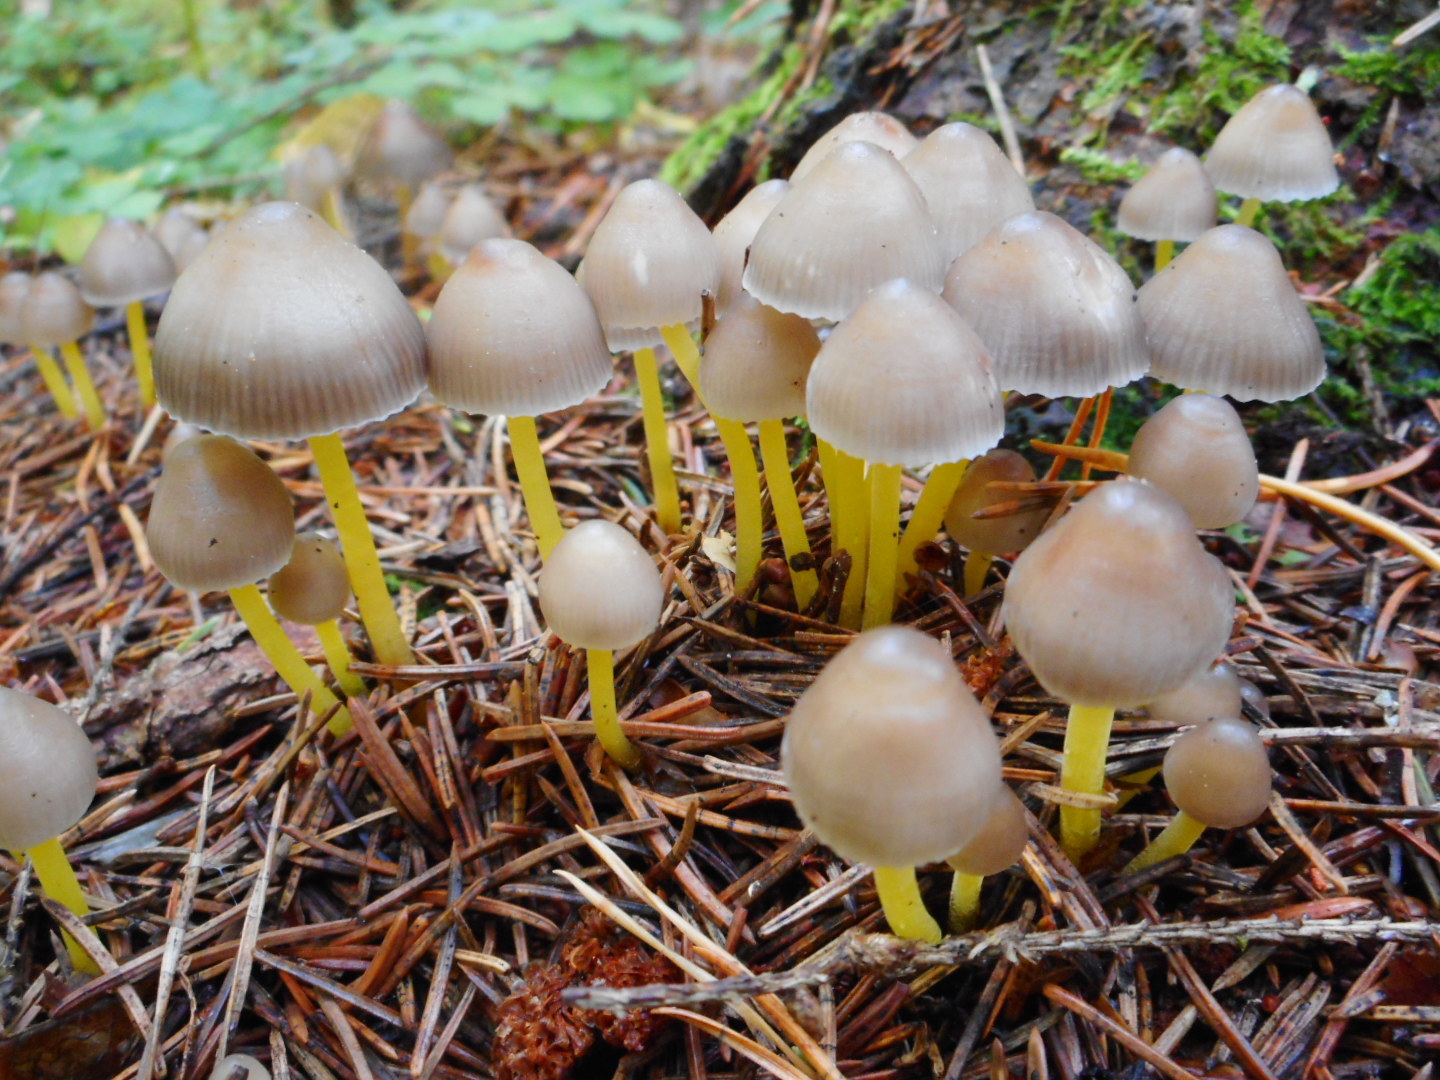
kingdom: Fungi
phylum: Basidiomycota
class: Agaricomycetes
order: Agaricales
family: Mycenaceae
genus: Mycena
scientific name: Mycena epipterygia
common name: Yellowleg bonnet
